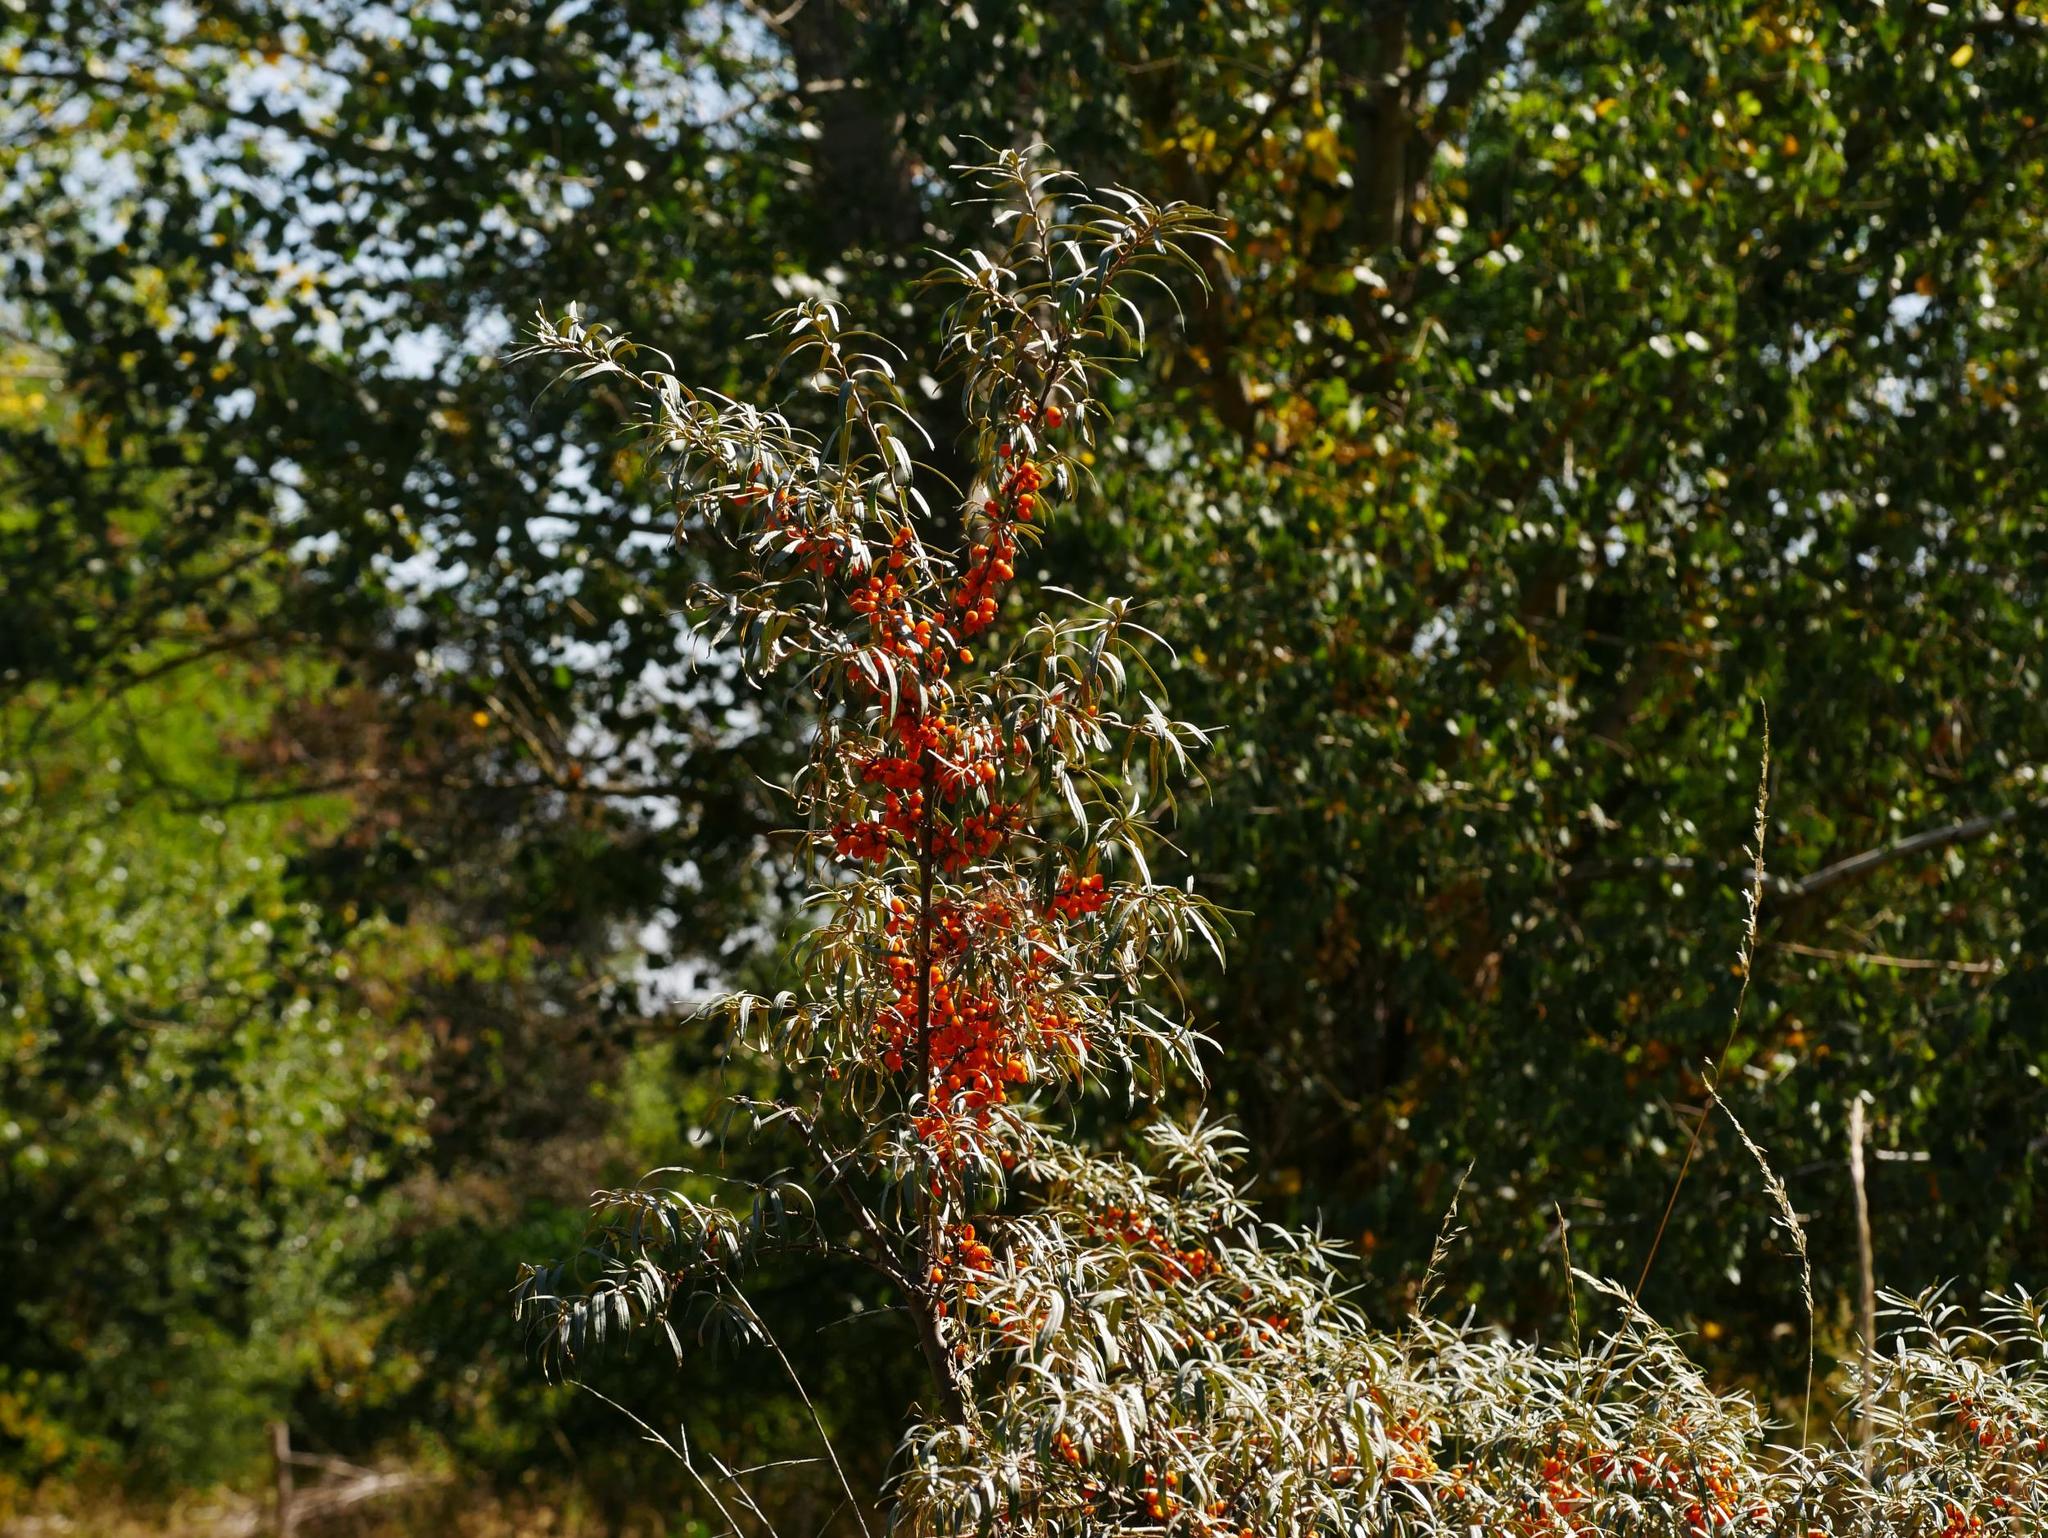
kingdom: Plantae
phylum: Tracheophyta
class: Magnoliopsida
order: Rosales
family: Elaeagnaceae
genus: Hippophae
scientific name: Hippophae rhamnoides
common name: Sea-buckthorn
